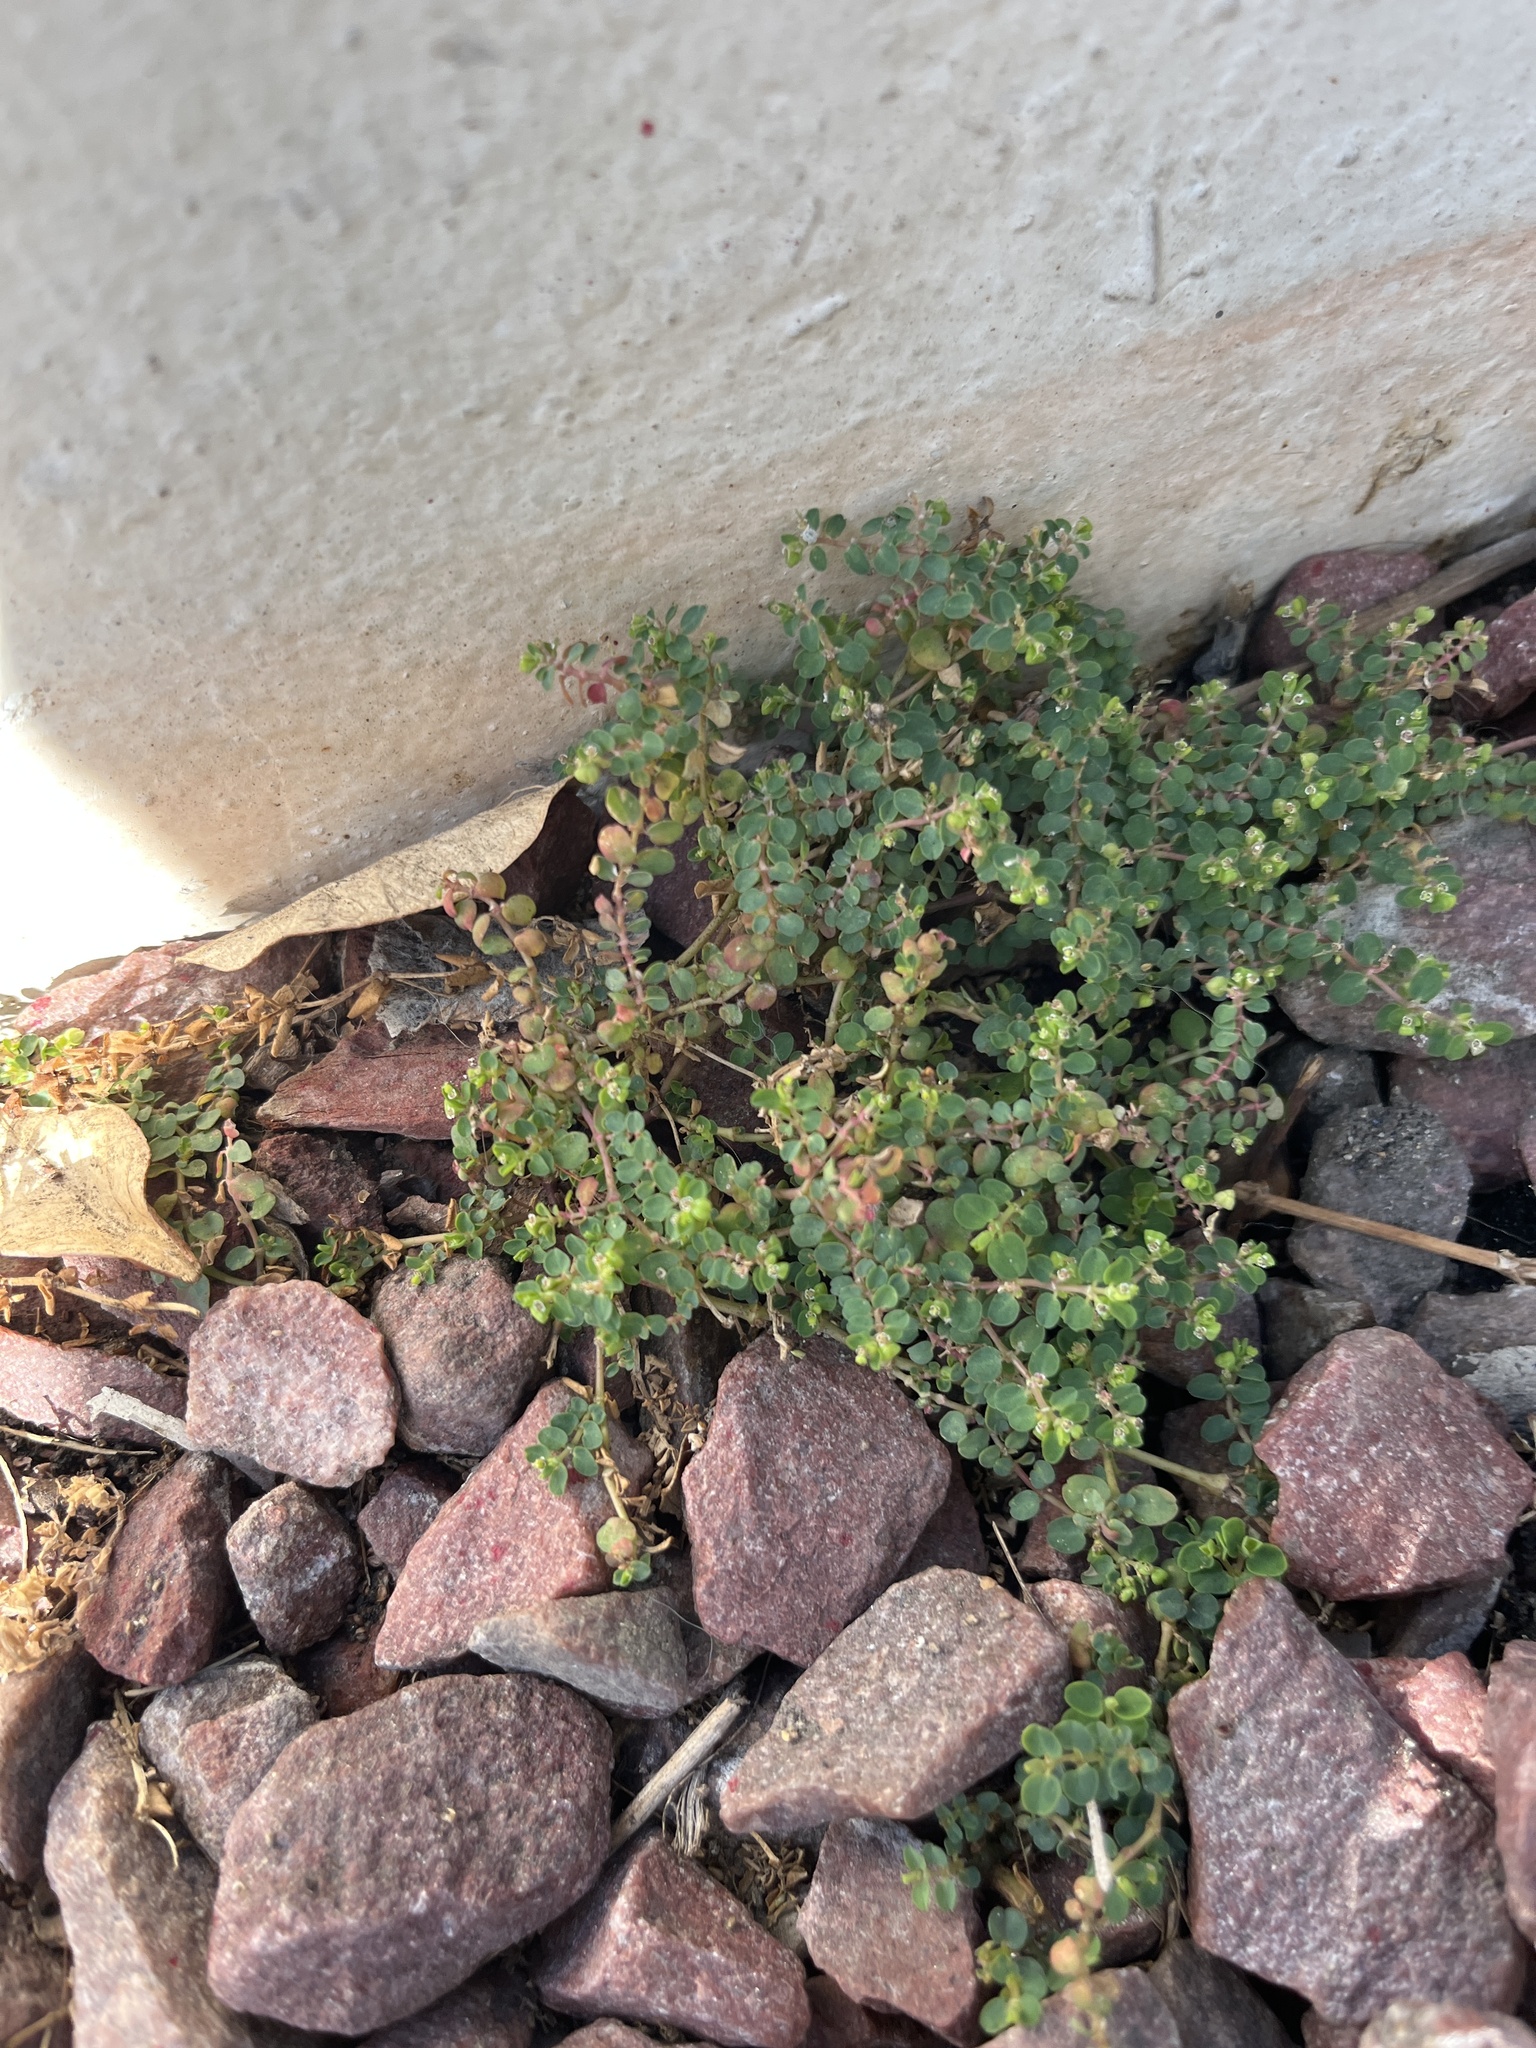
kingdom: Plantae
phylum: Tracheophyta
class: Magnoliopsida
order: Malpighiales
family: Euphorbiaceae
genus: Euphorbia
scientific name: Euphorbia serpens
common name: Matted sandmat
